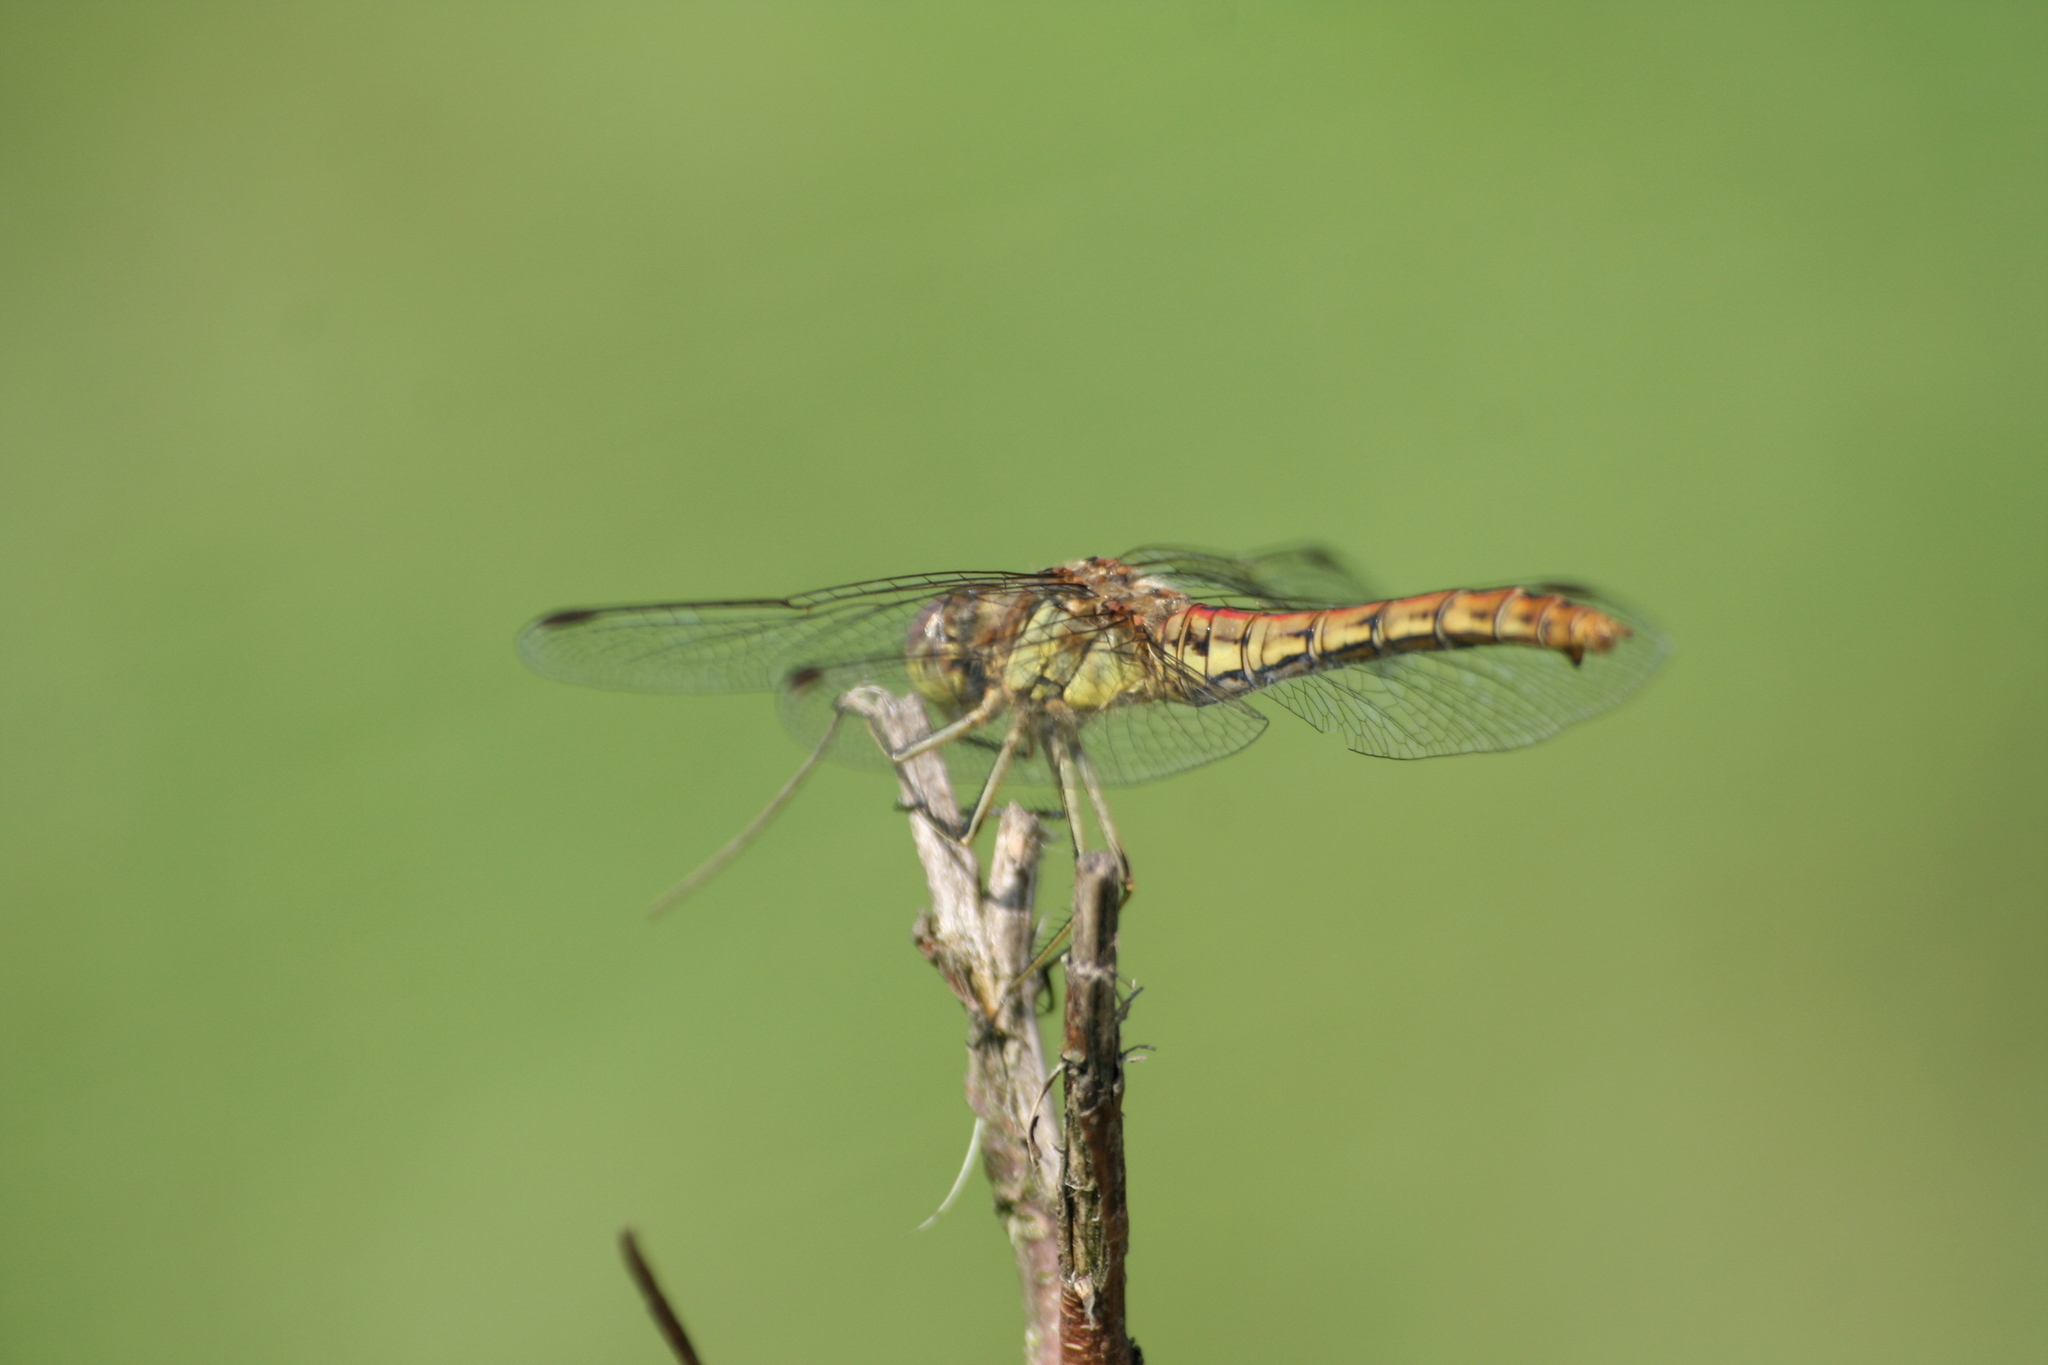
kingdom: Animalia
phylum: Arthropoda
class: Insecta
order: Odonata
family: Libellulidae
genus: Sympetrum
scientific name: Sympetrum vulgatum
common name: Vagrant darter
